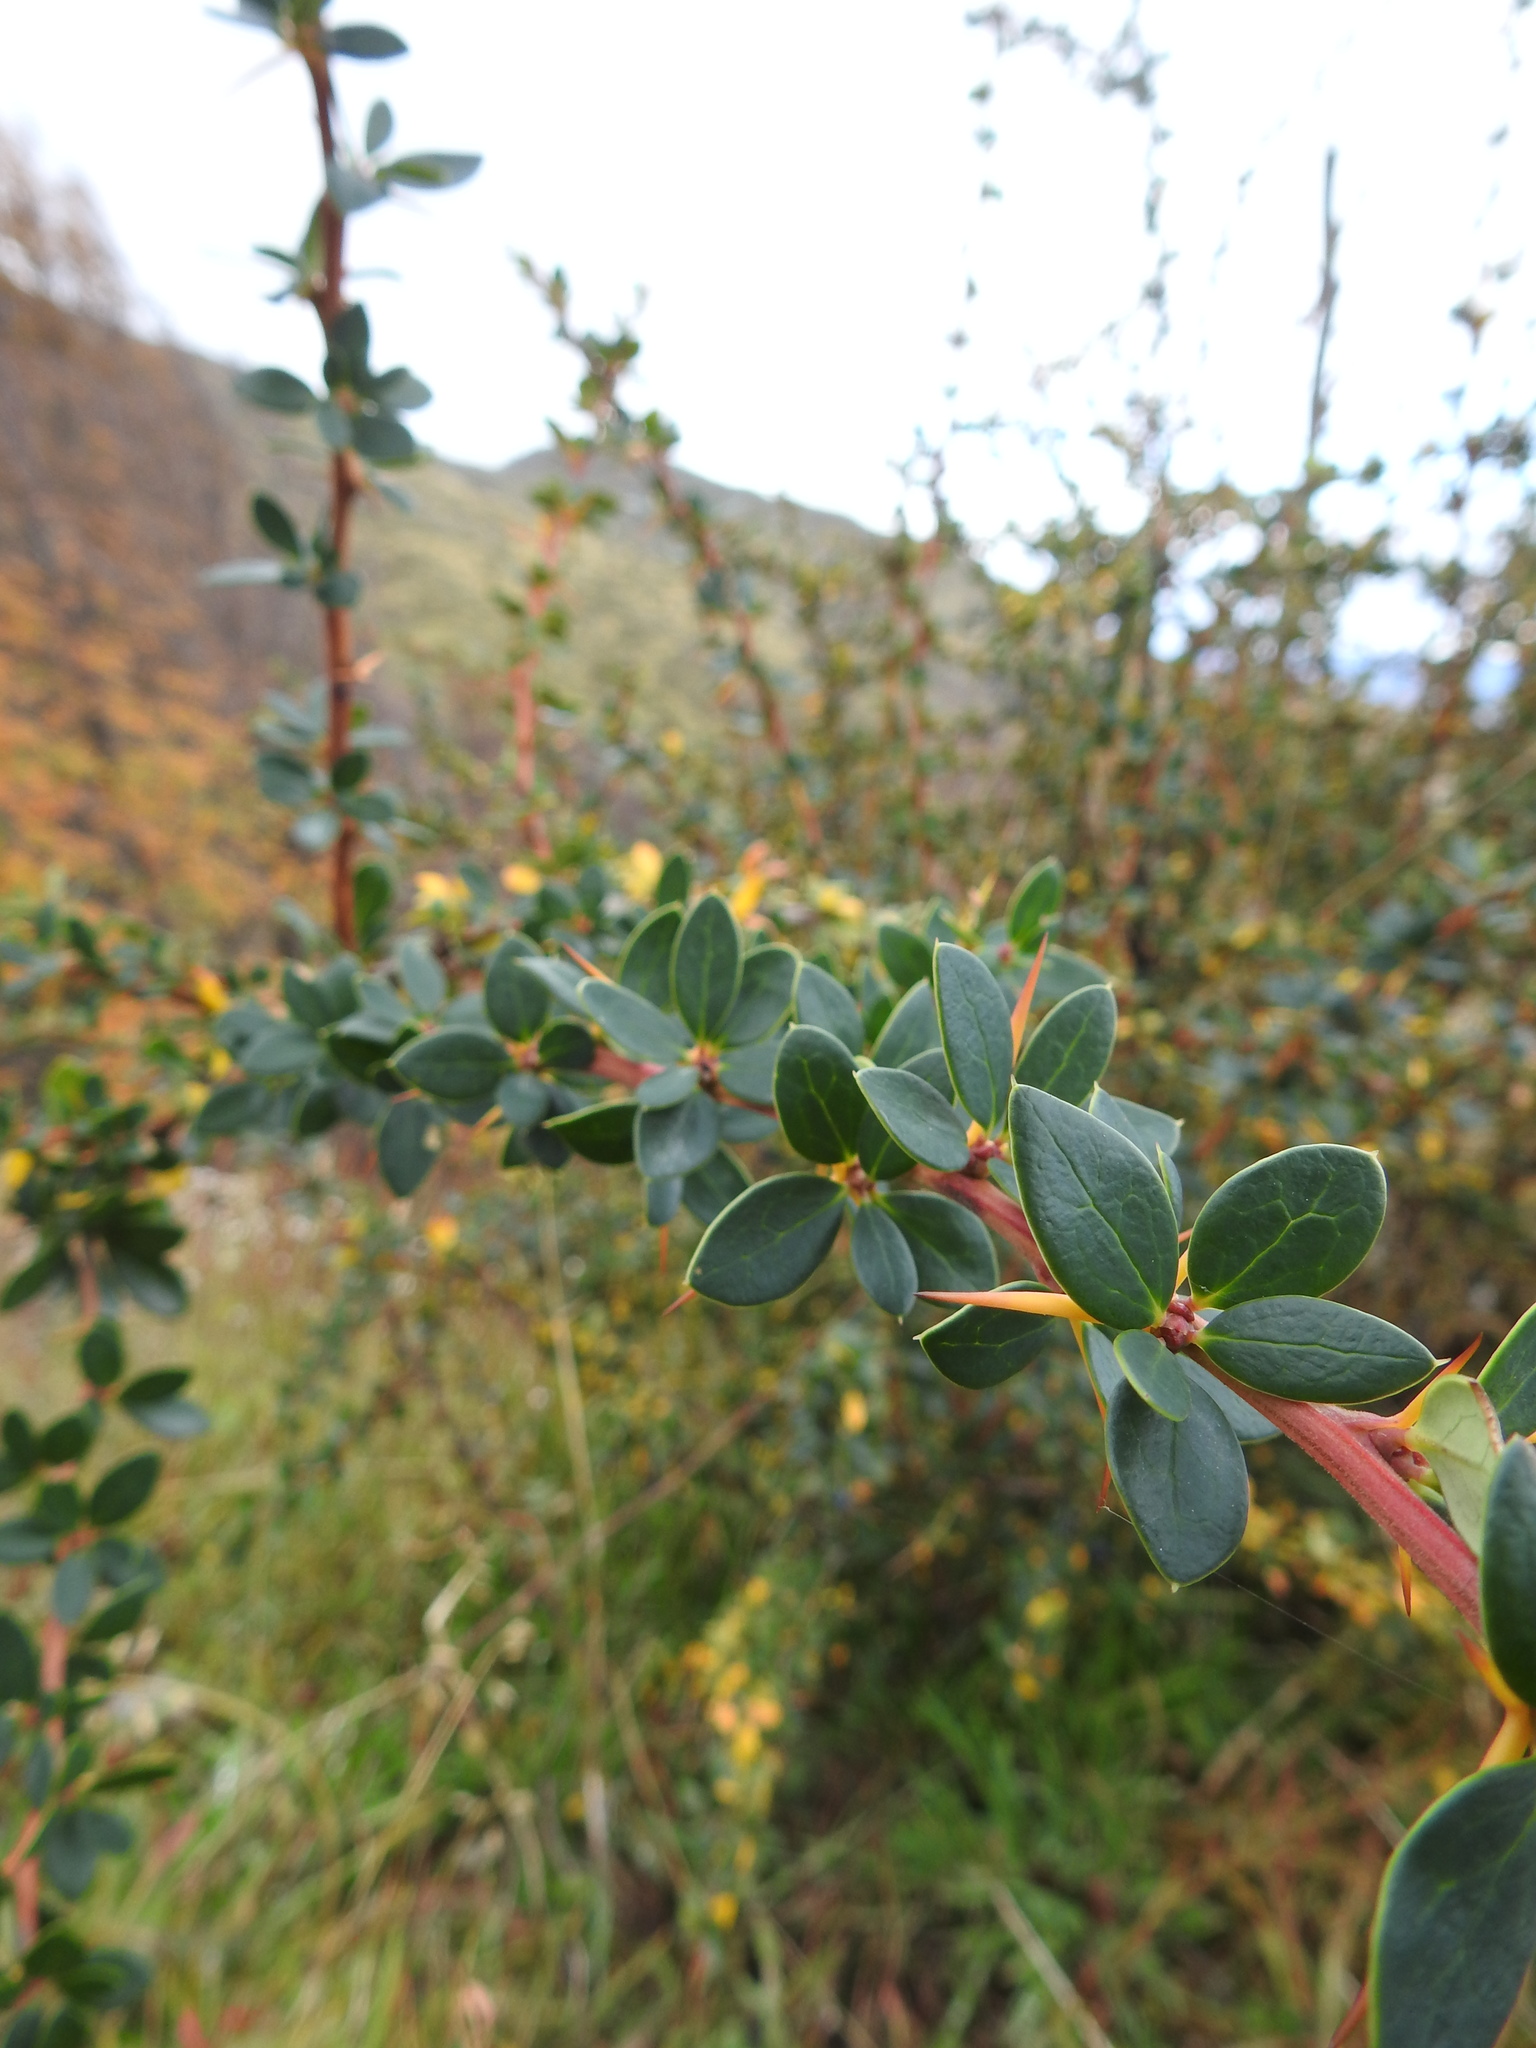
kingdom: Plantae
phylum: Tracheophyta
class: Magnoliopsida
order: Ranunculales
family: Berberidaceae
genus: Berberis
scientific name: Berberis microphylla
